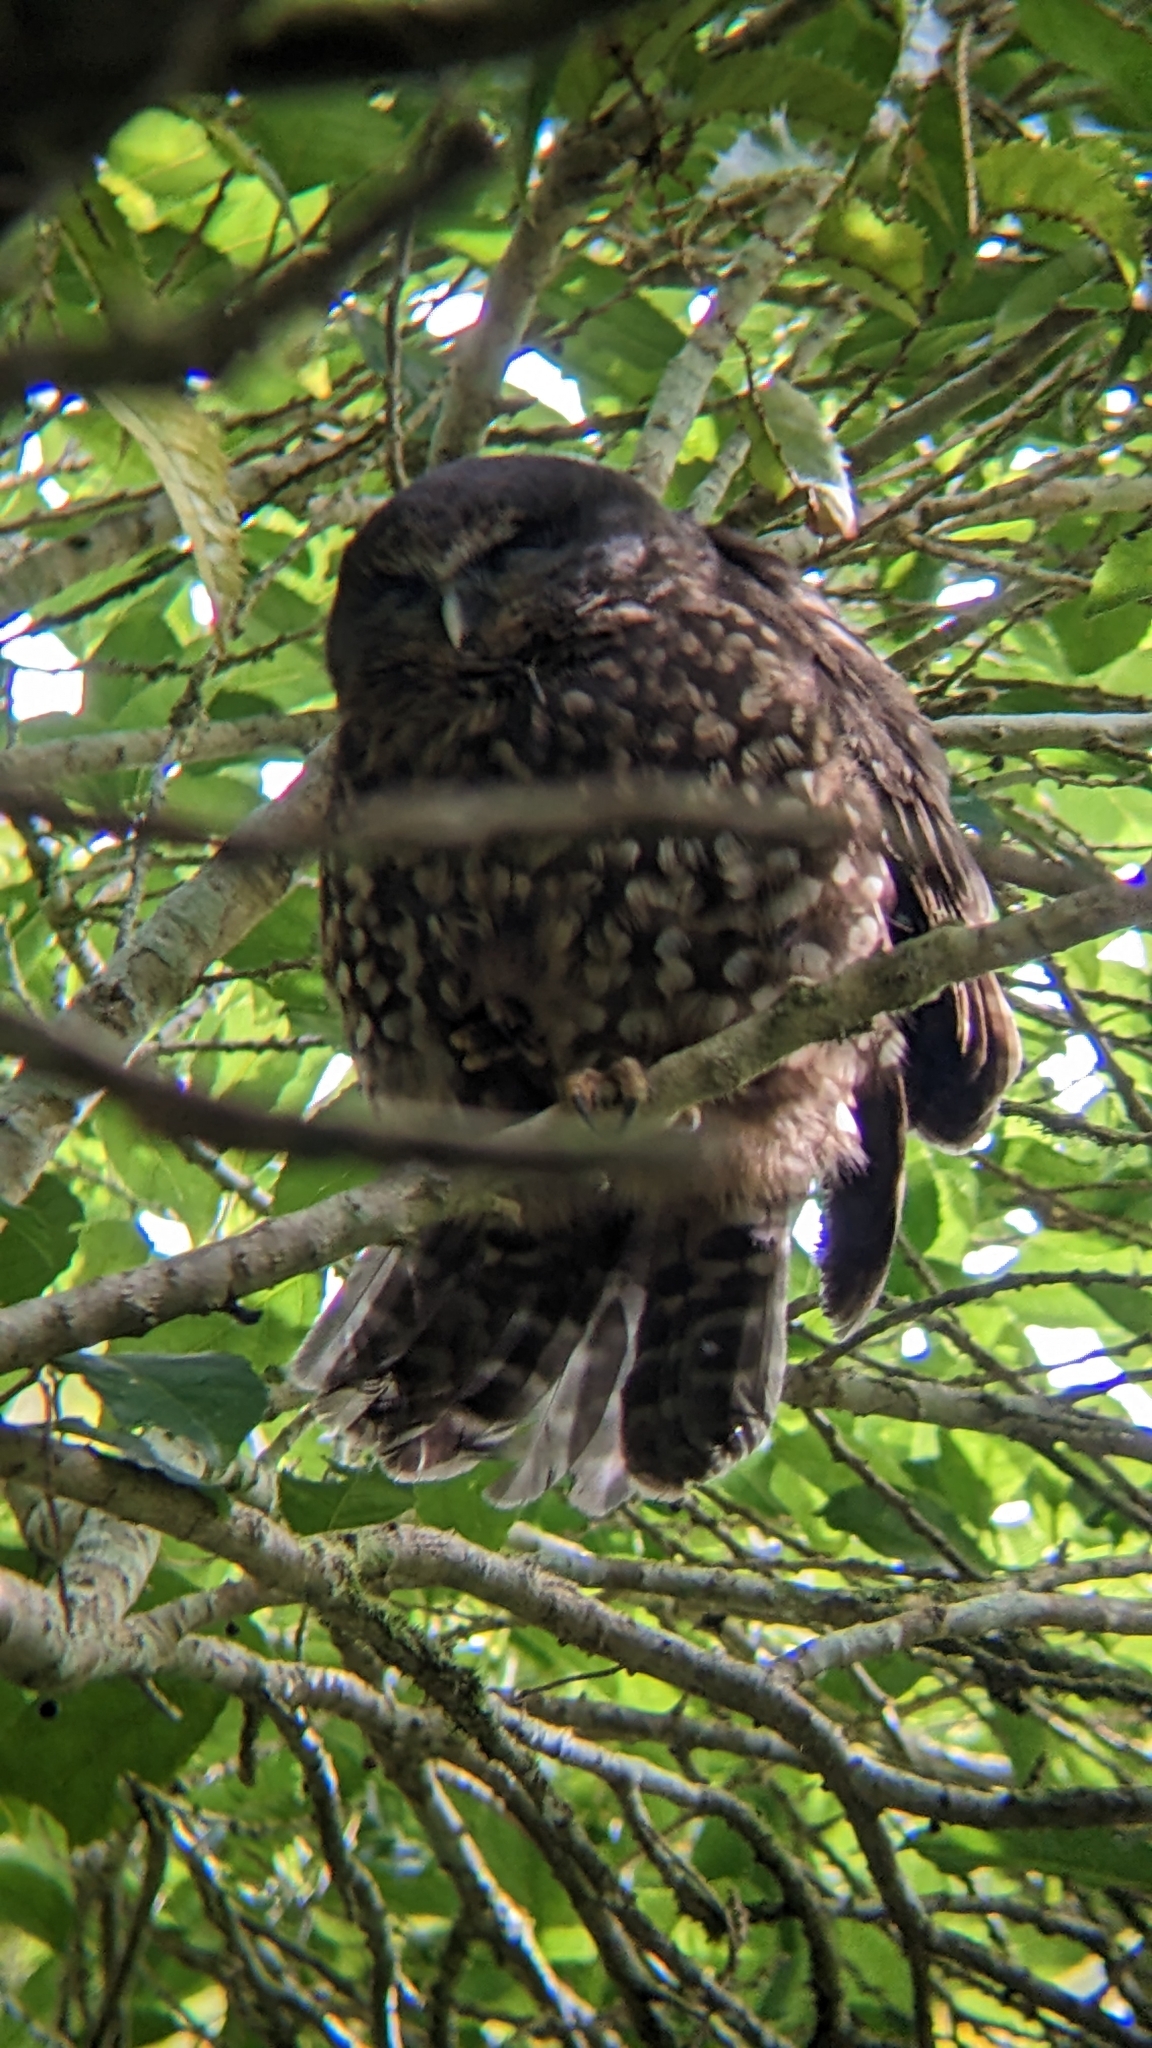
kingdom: Animalia
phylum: Chordata
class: Aves
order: Strigiformes
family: Strigidae
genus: Ninox
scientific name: Ninox novaeseelandiae
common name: Morepork
